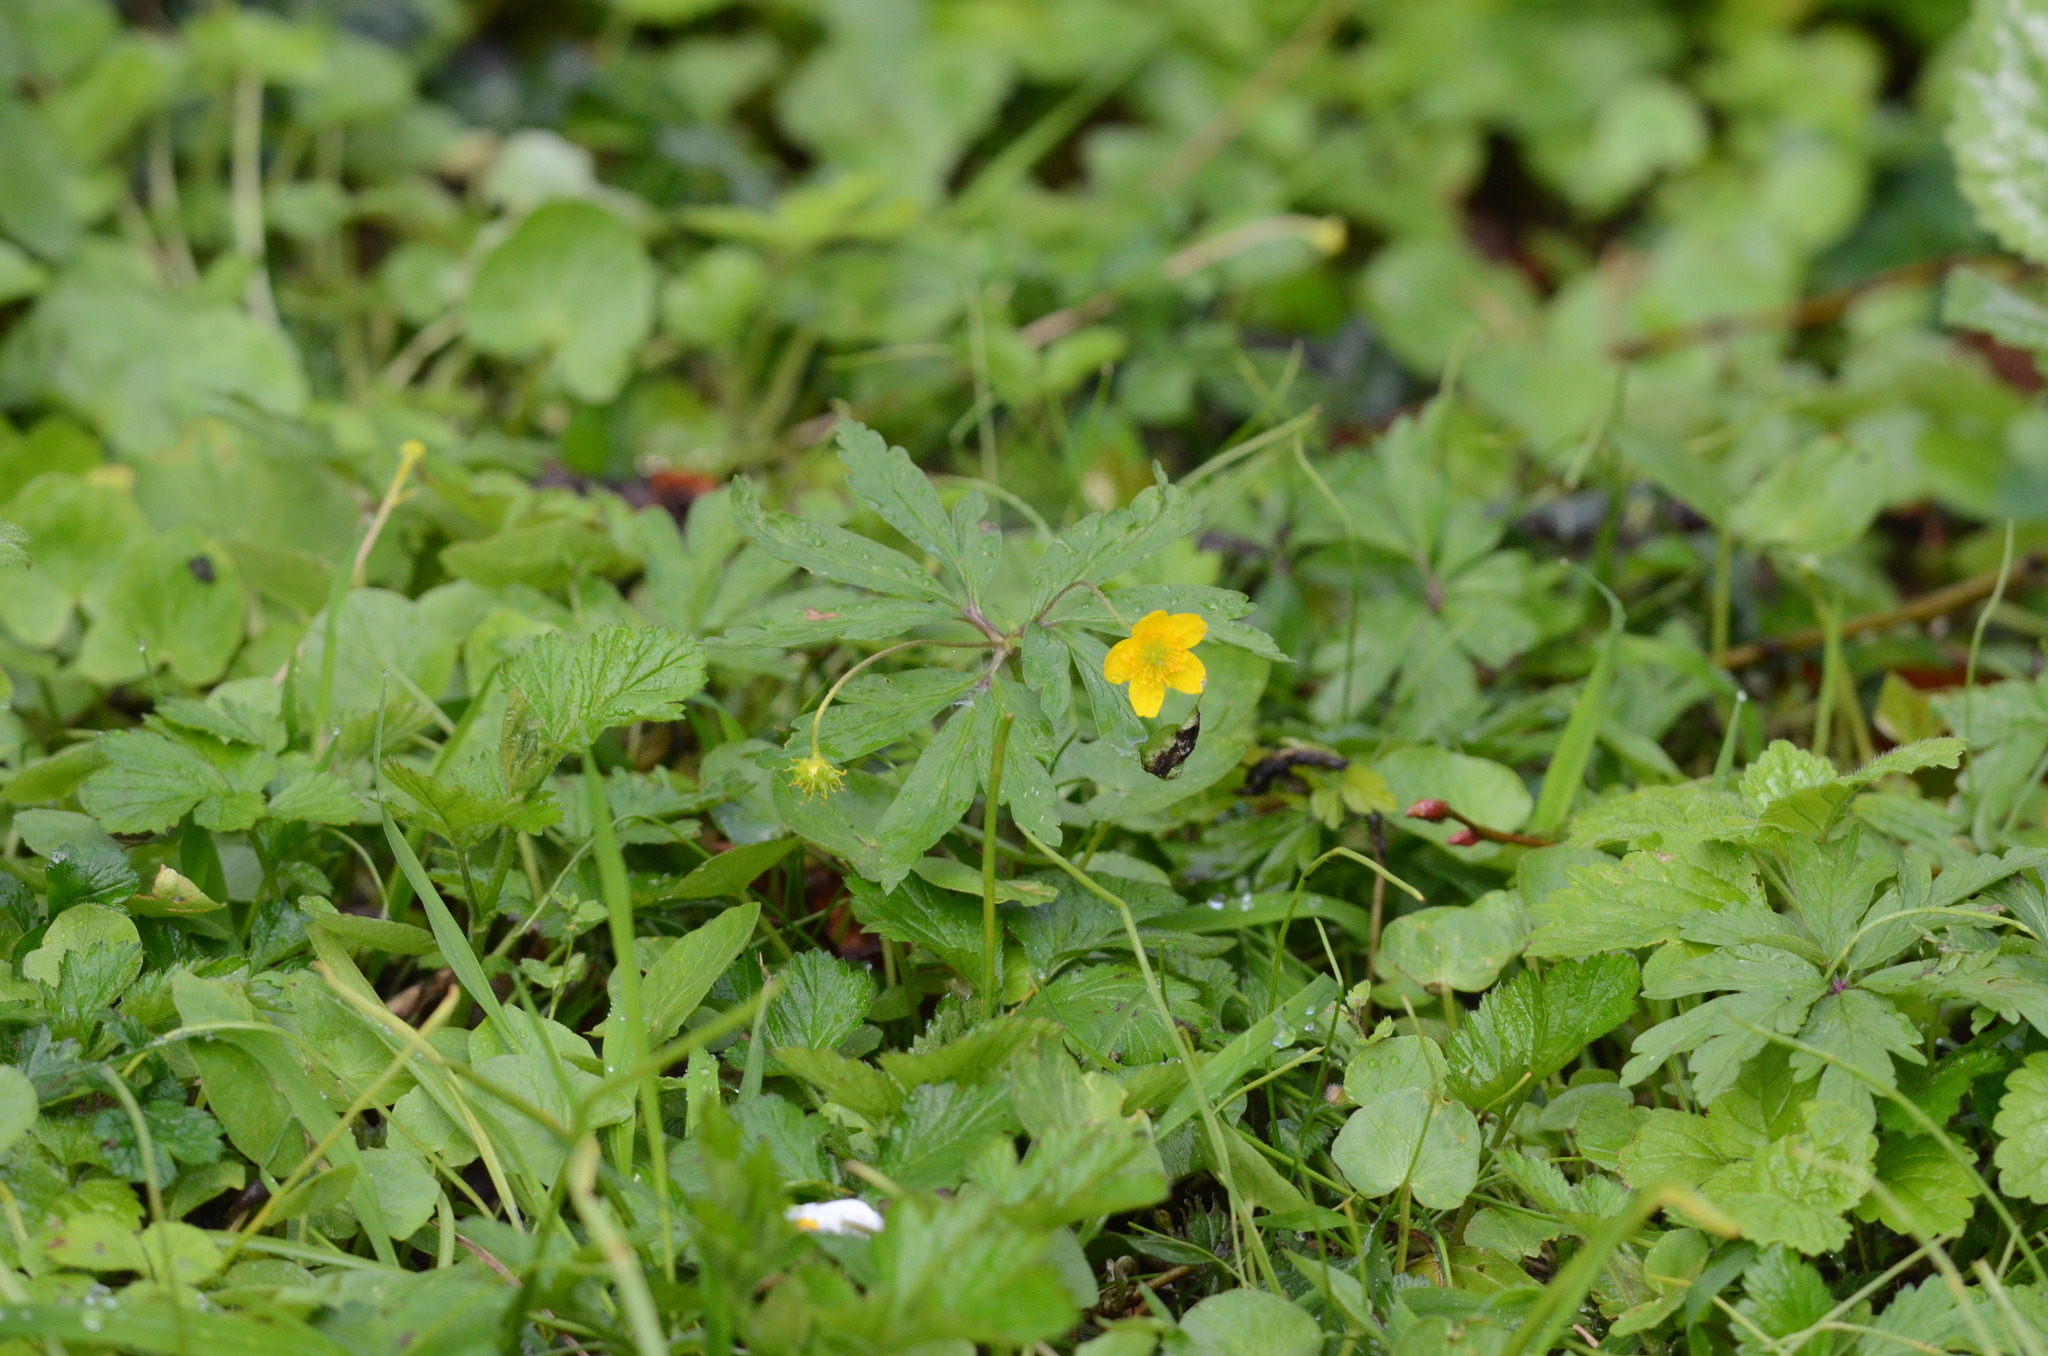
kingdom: Plantae
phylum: Tracheophyta
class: Magnoliopsida
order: Ranunculales
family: Ranunculaceae
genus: Anemone
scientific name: Anemone ranunculoides
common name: Yellow anemone
